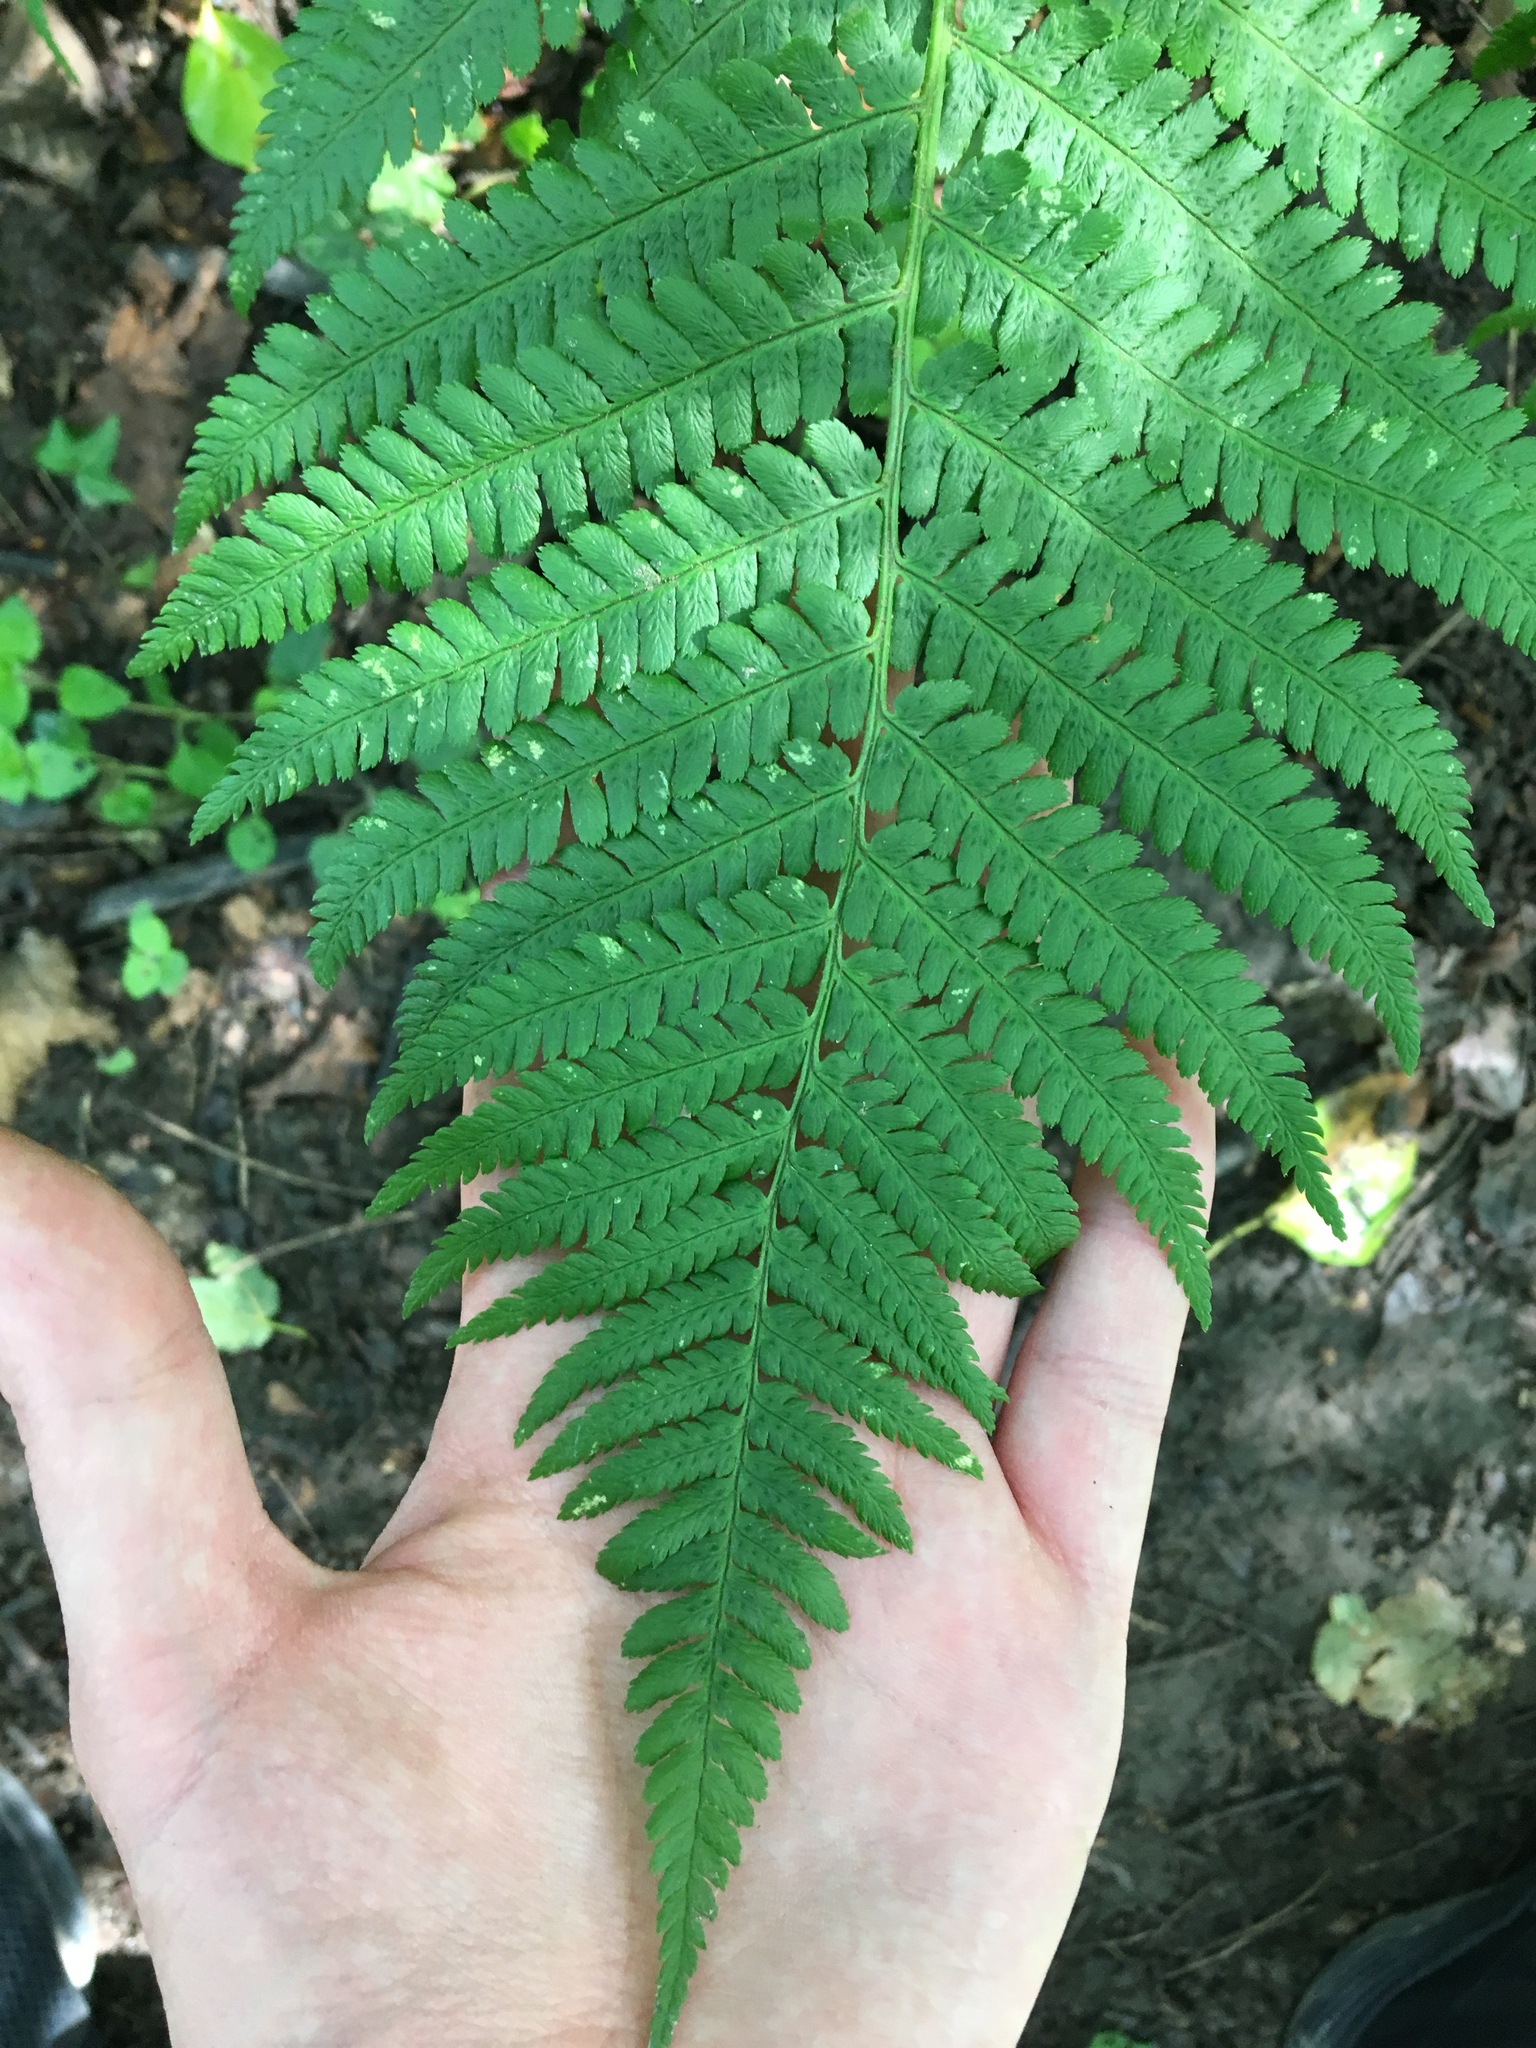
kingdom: Plantae
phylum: Tracheophyta
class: Polypodiopsida
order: Polypodiales
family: Dryopteridaceae
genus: Dryopteris
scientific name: Dryopteris filix-mas
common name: Male fern
